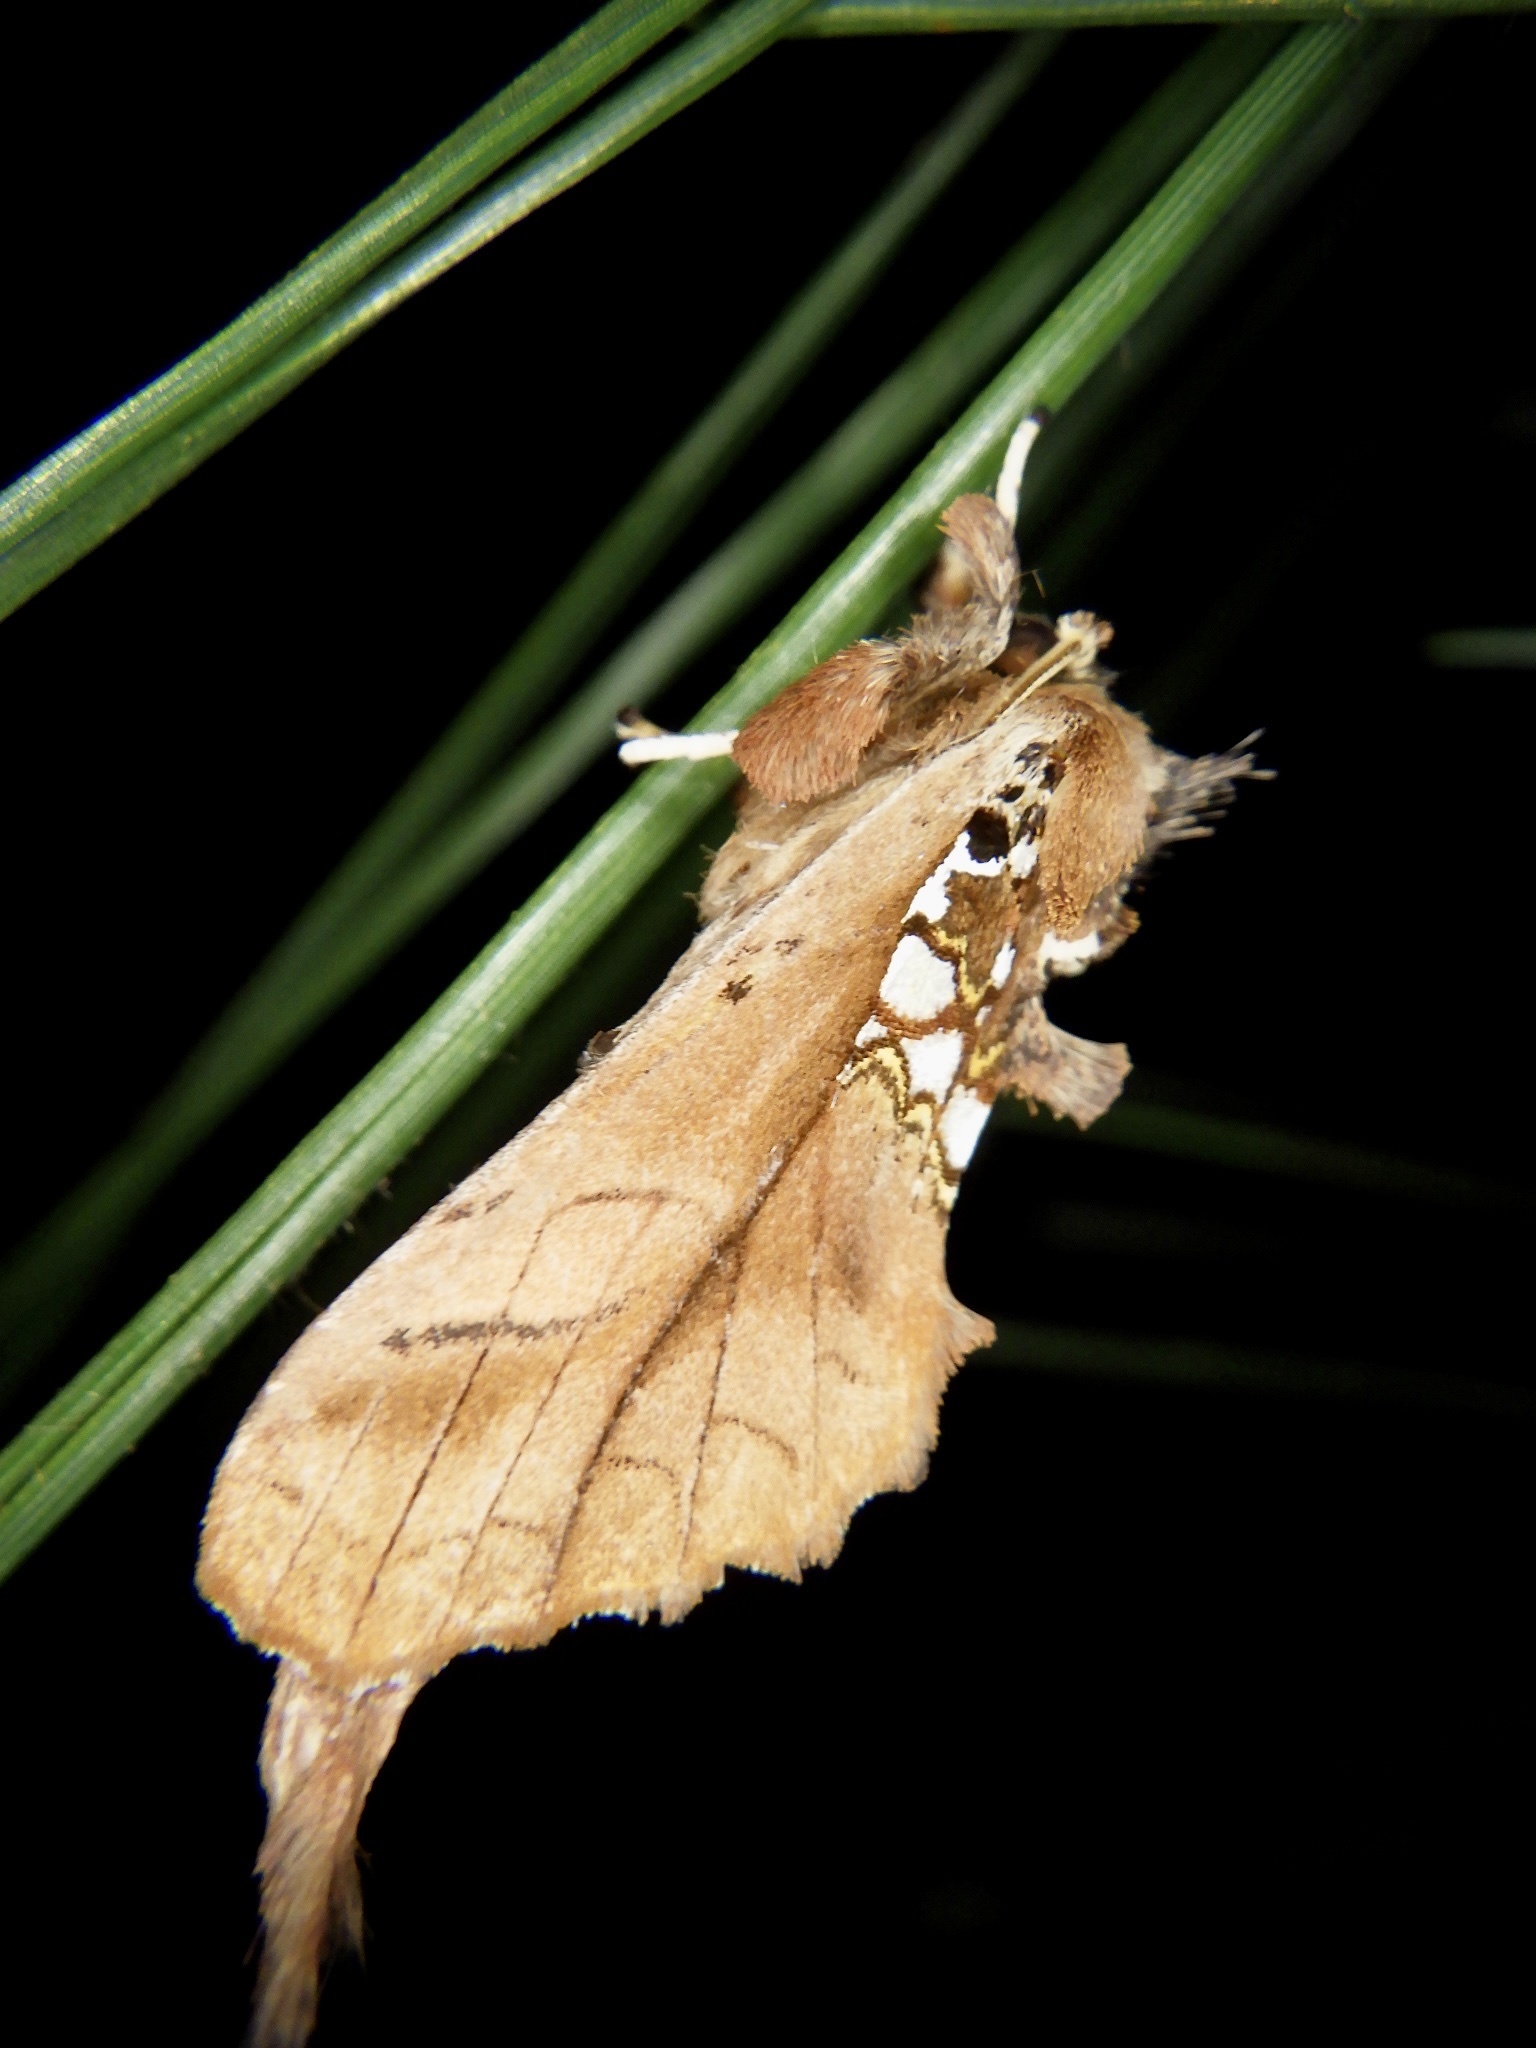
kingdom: Animalia
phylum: Arthropoda
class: Insecta
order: Lepidoptera
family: Notodontidae
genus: Spatalia
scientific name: Spatalia dives
